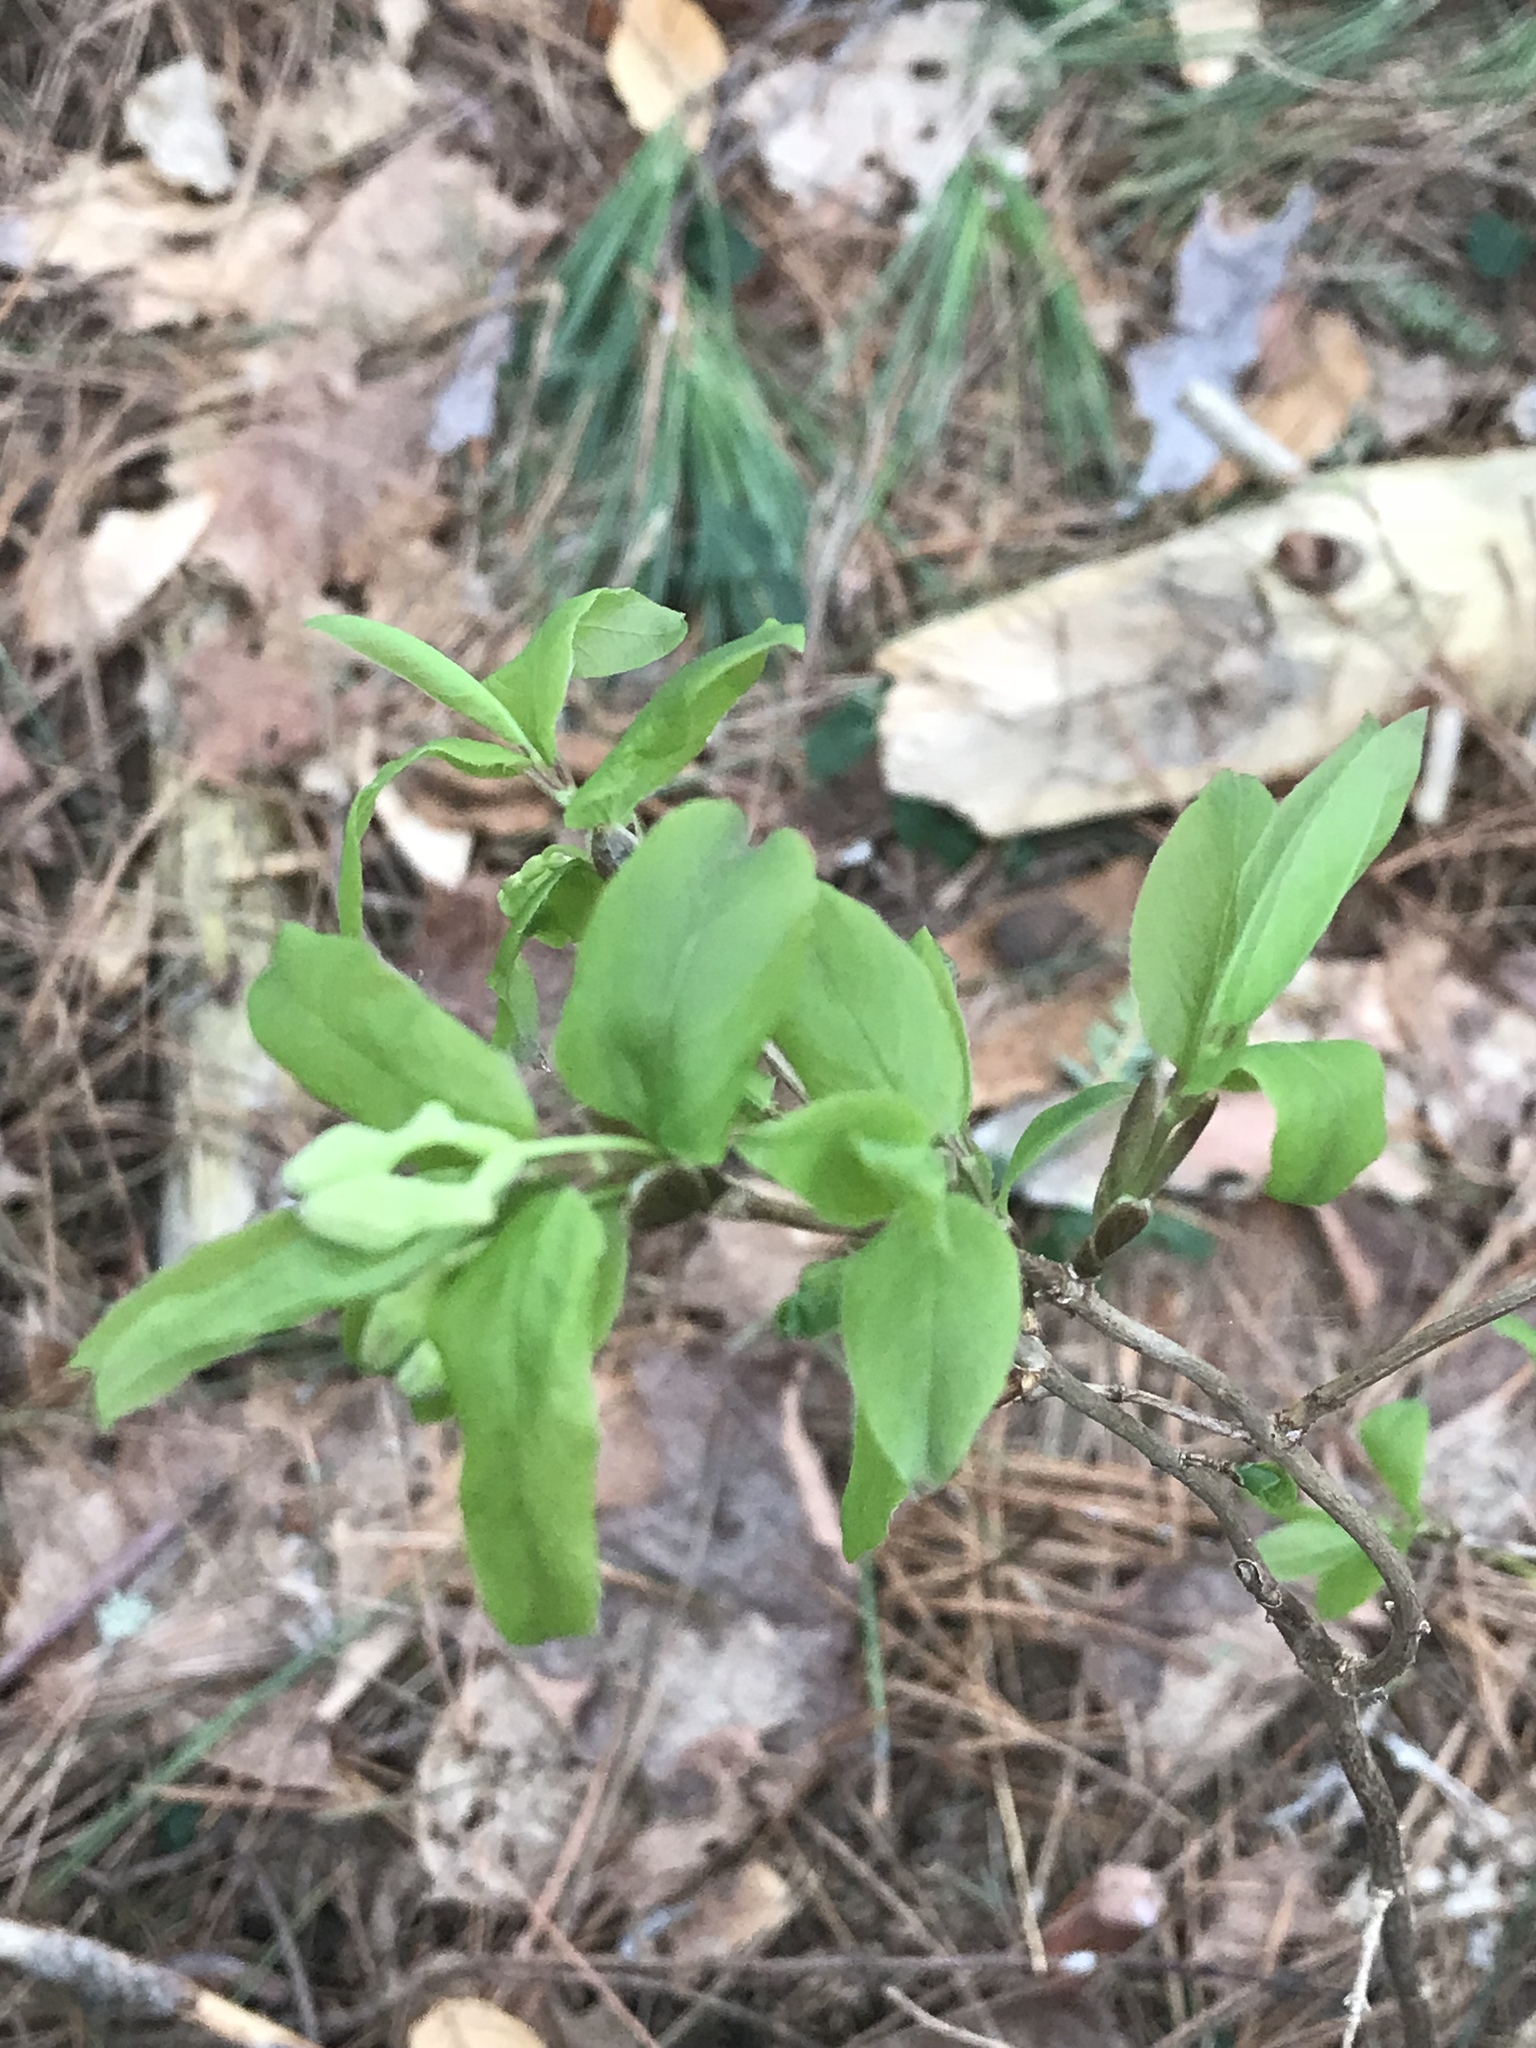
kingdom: Plantae
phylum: Tracheophyta
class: Magnoliopsida
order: Dipsacales
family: Caprifoliaceae
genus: Lonicera
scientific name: Lonicera canadensis
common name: American fly-honeysuckle
